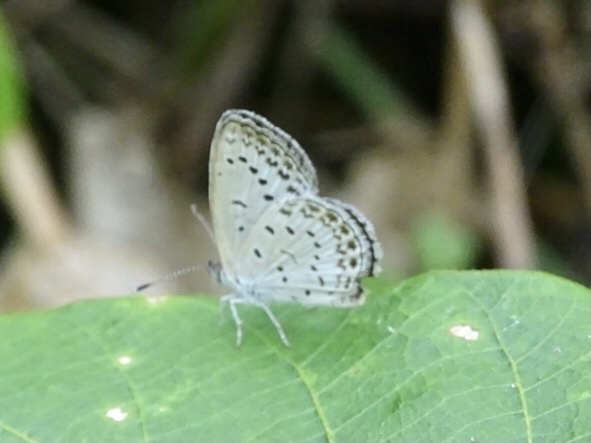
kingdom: Animalia
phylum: Arthropoda
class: Insecta
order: Lepidoptera
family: Lycaenidae
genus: Pseudozizeeria
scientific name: Pseudozizeeria maha
